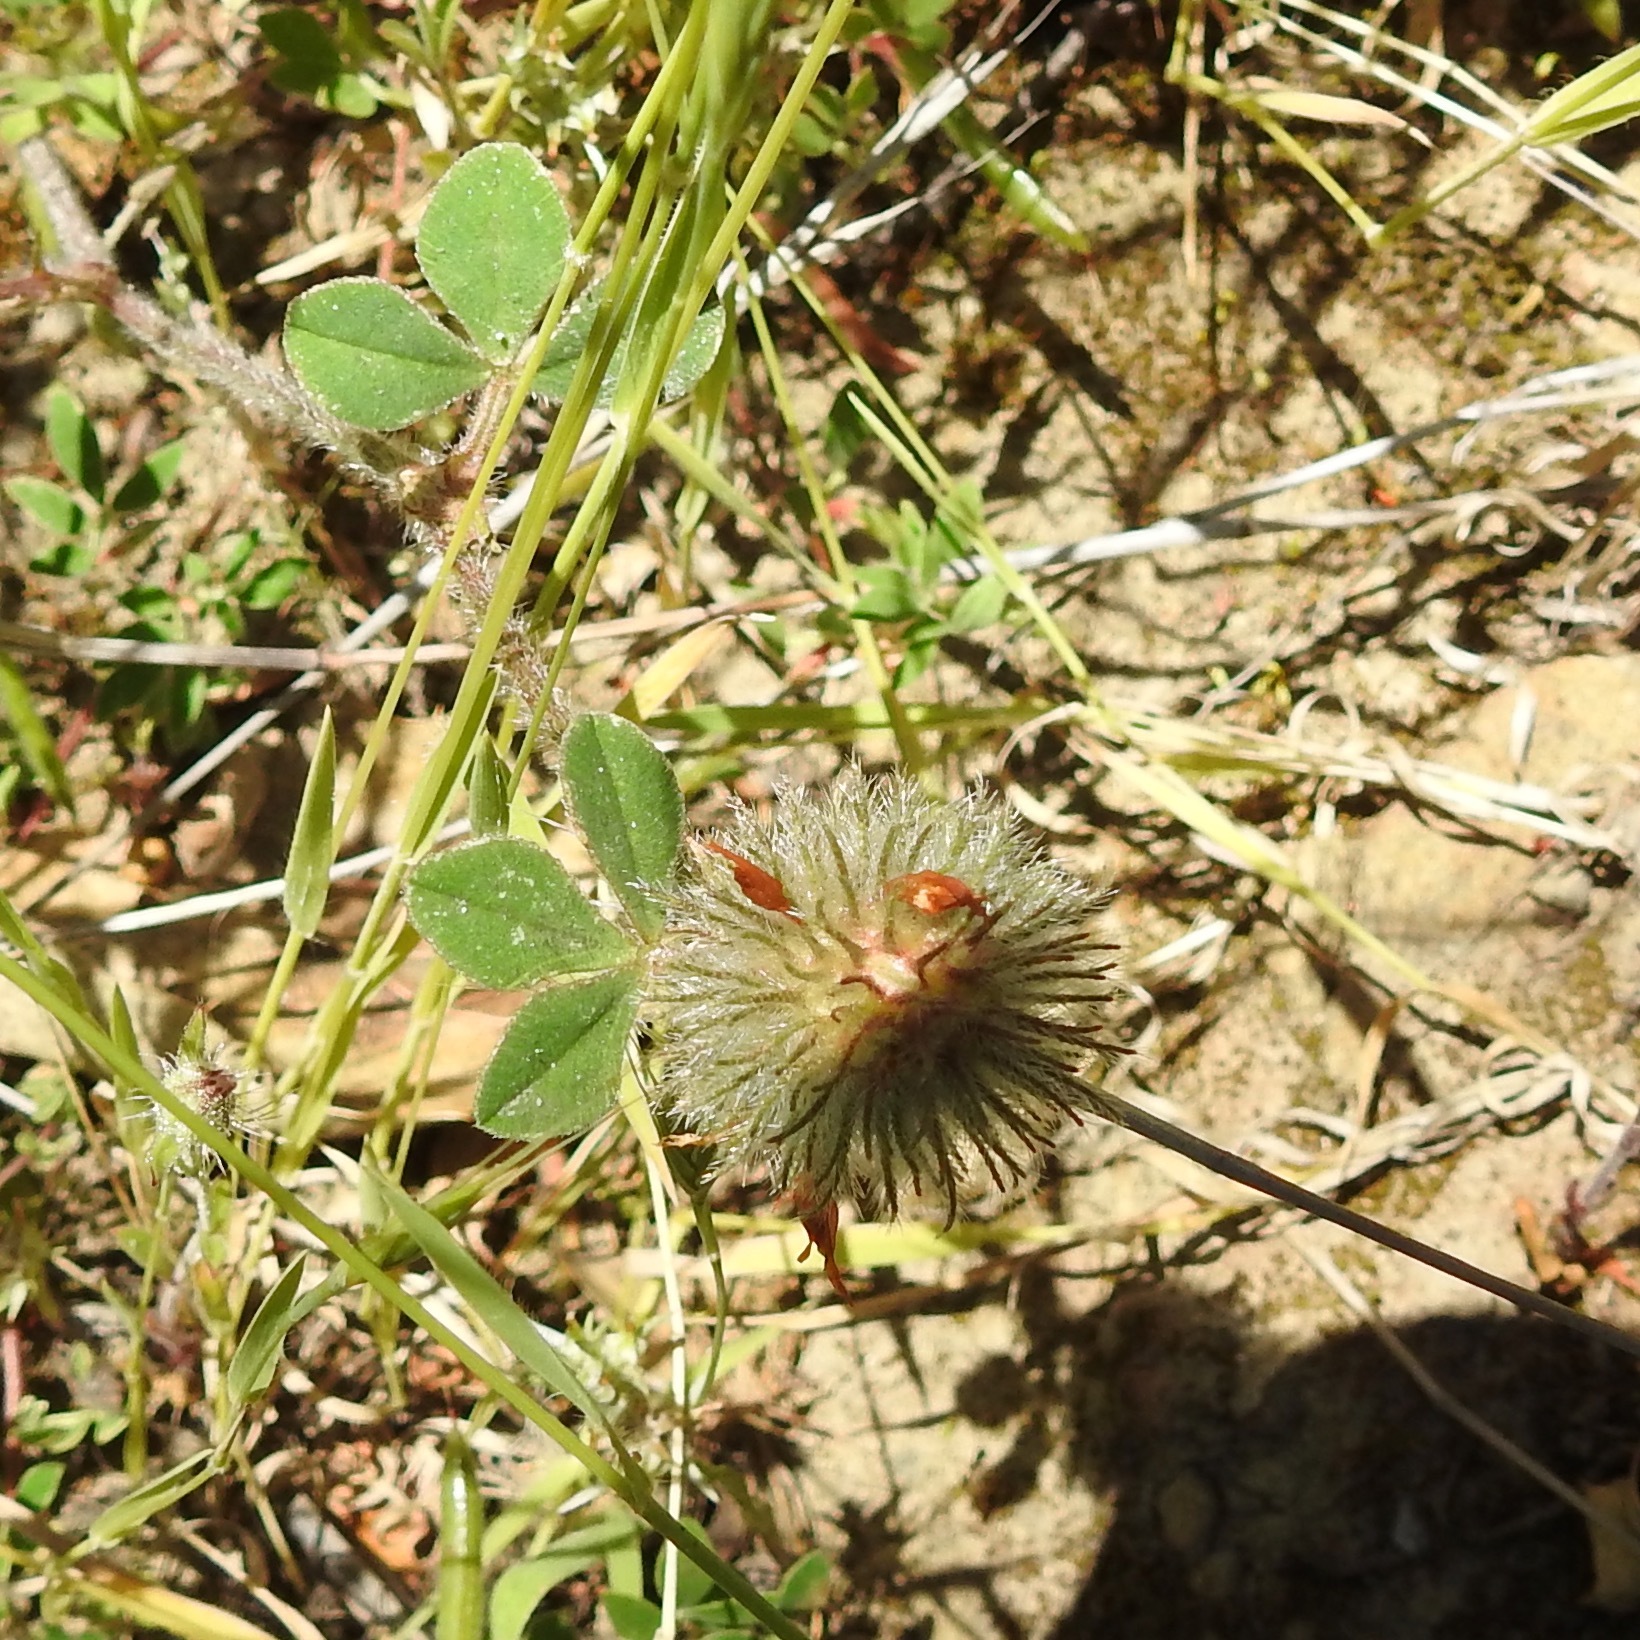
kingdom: Plantae
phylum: Tracheophyta
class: Magnoliopsida
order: Fabales
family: Fabaceae
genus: Trifolium
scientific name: Trifolium hirtum
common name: Rose clover
